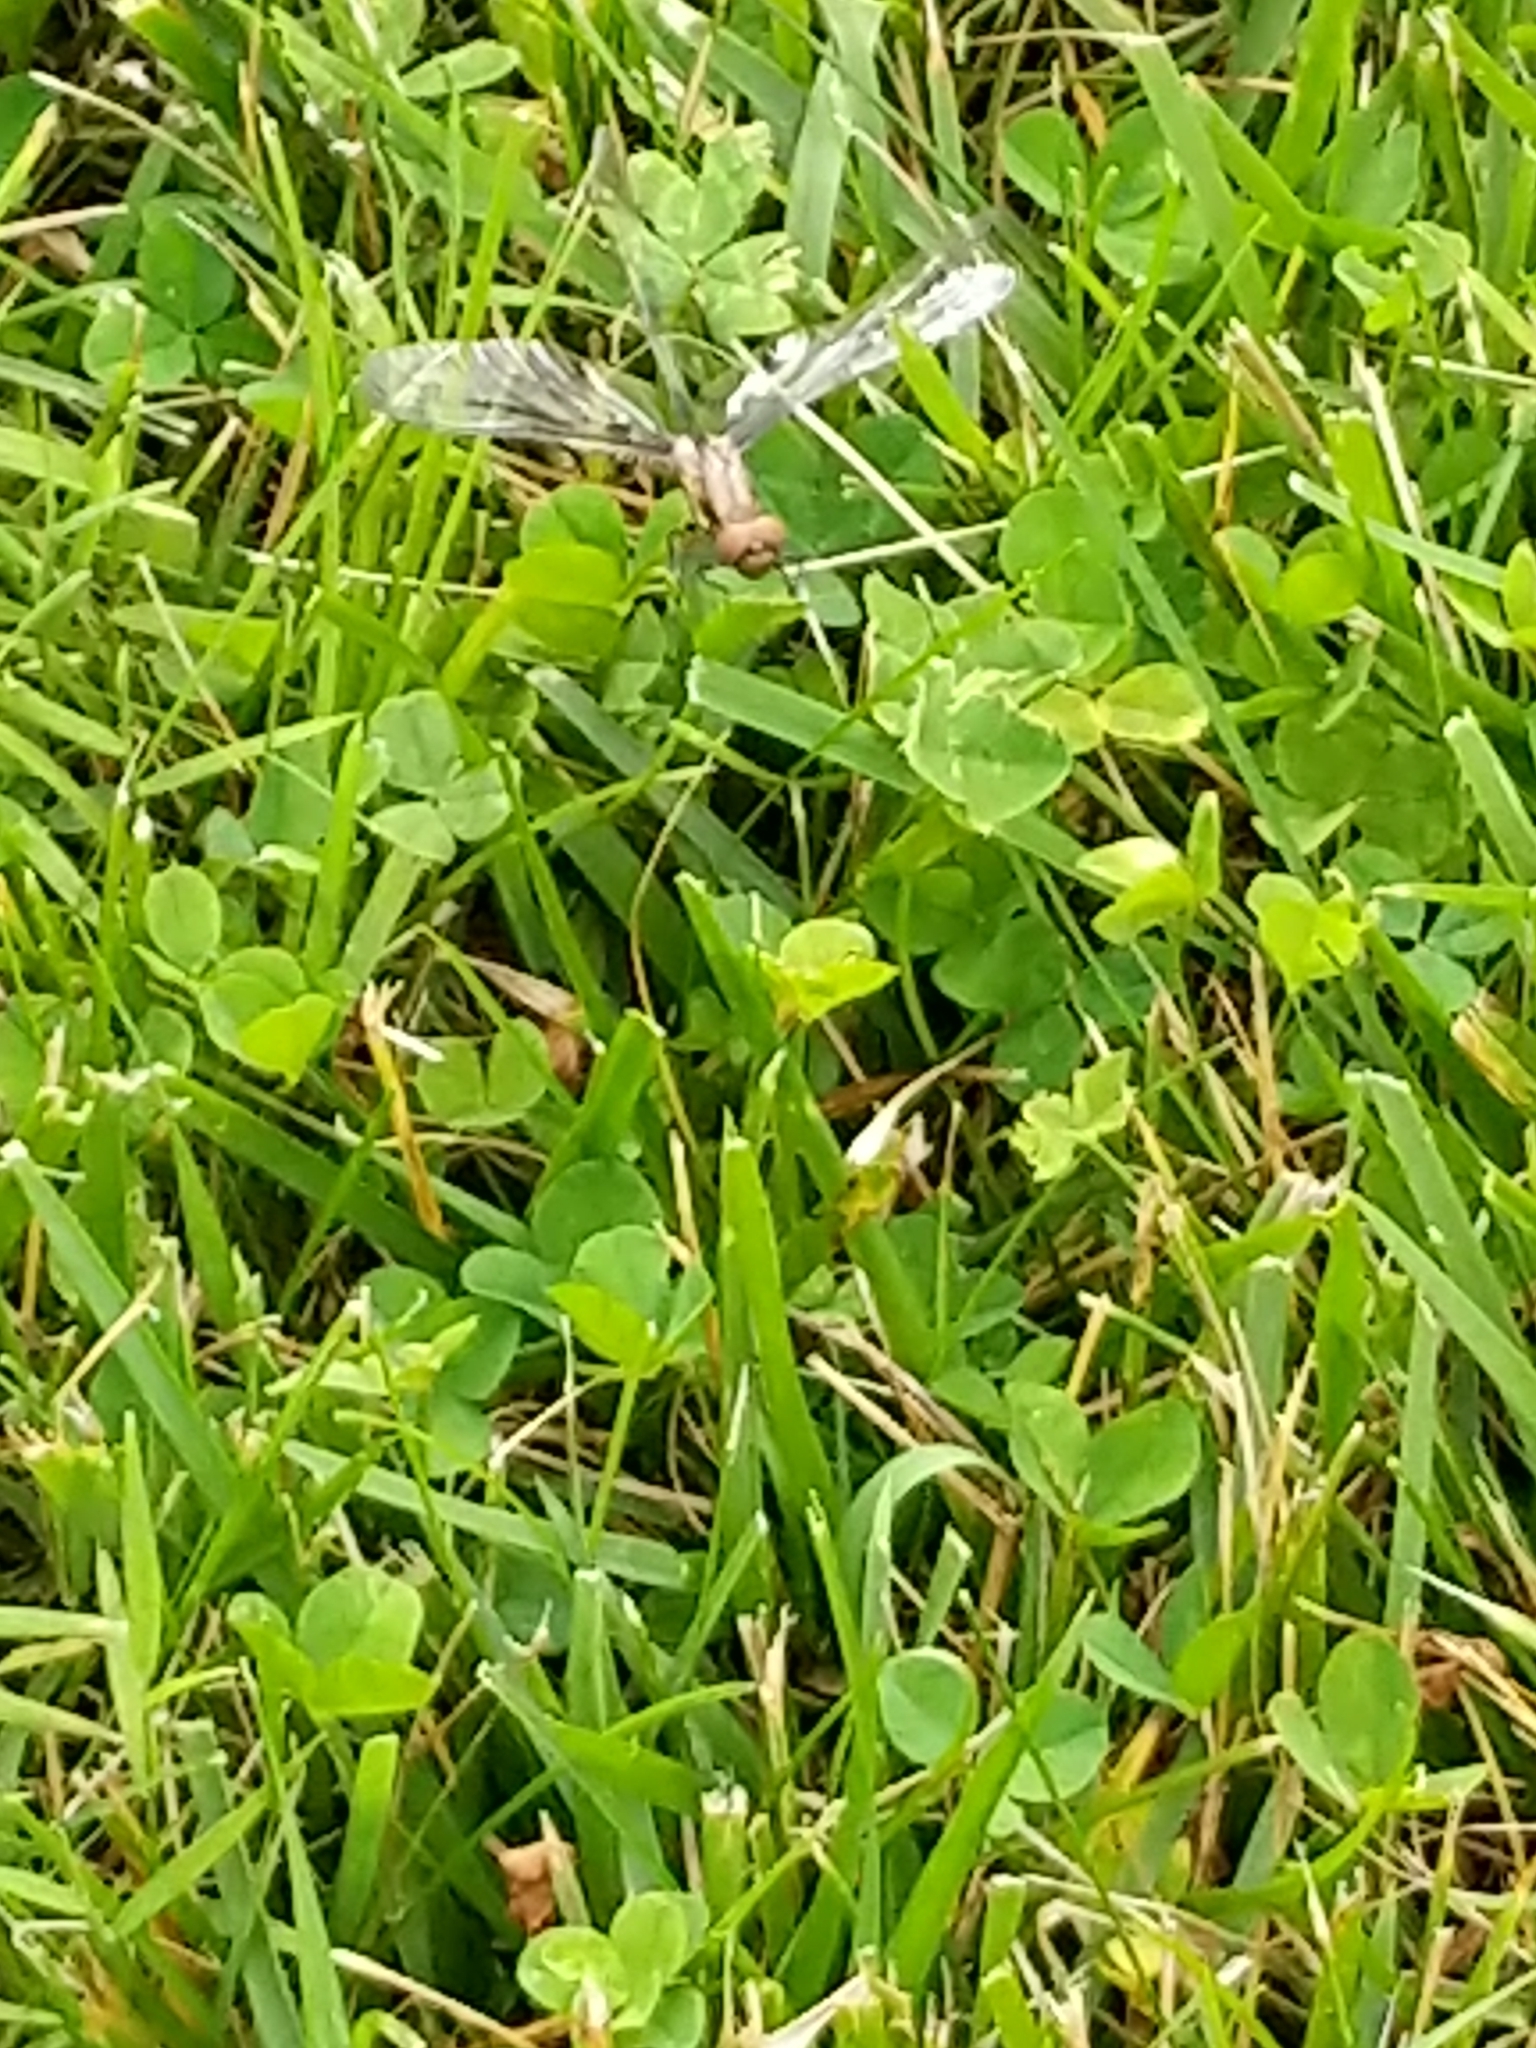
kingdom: Animalia
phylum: Arthropoda
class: Insecta
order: Odonata
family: Libellulidae
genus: Plathemis
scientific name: Plathemis lydia
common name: Common whitetail
